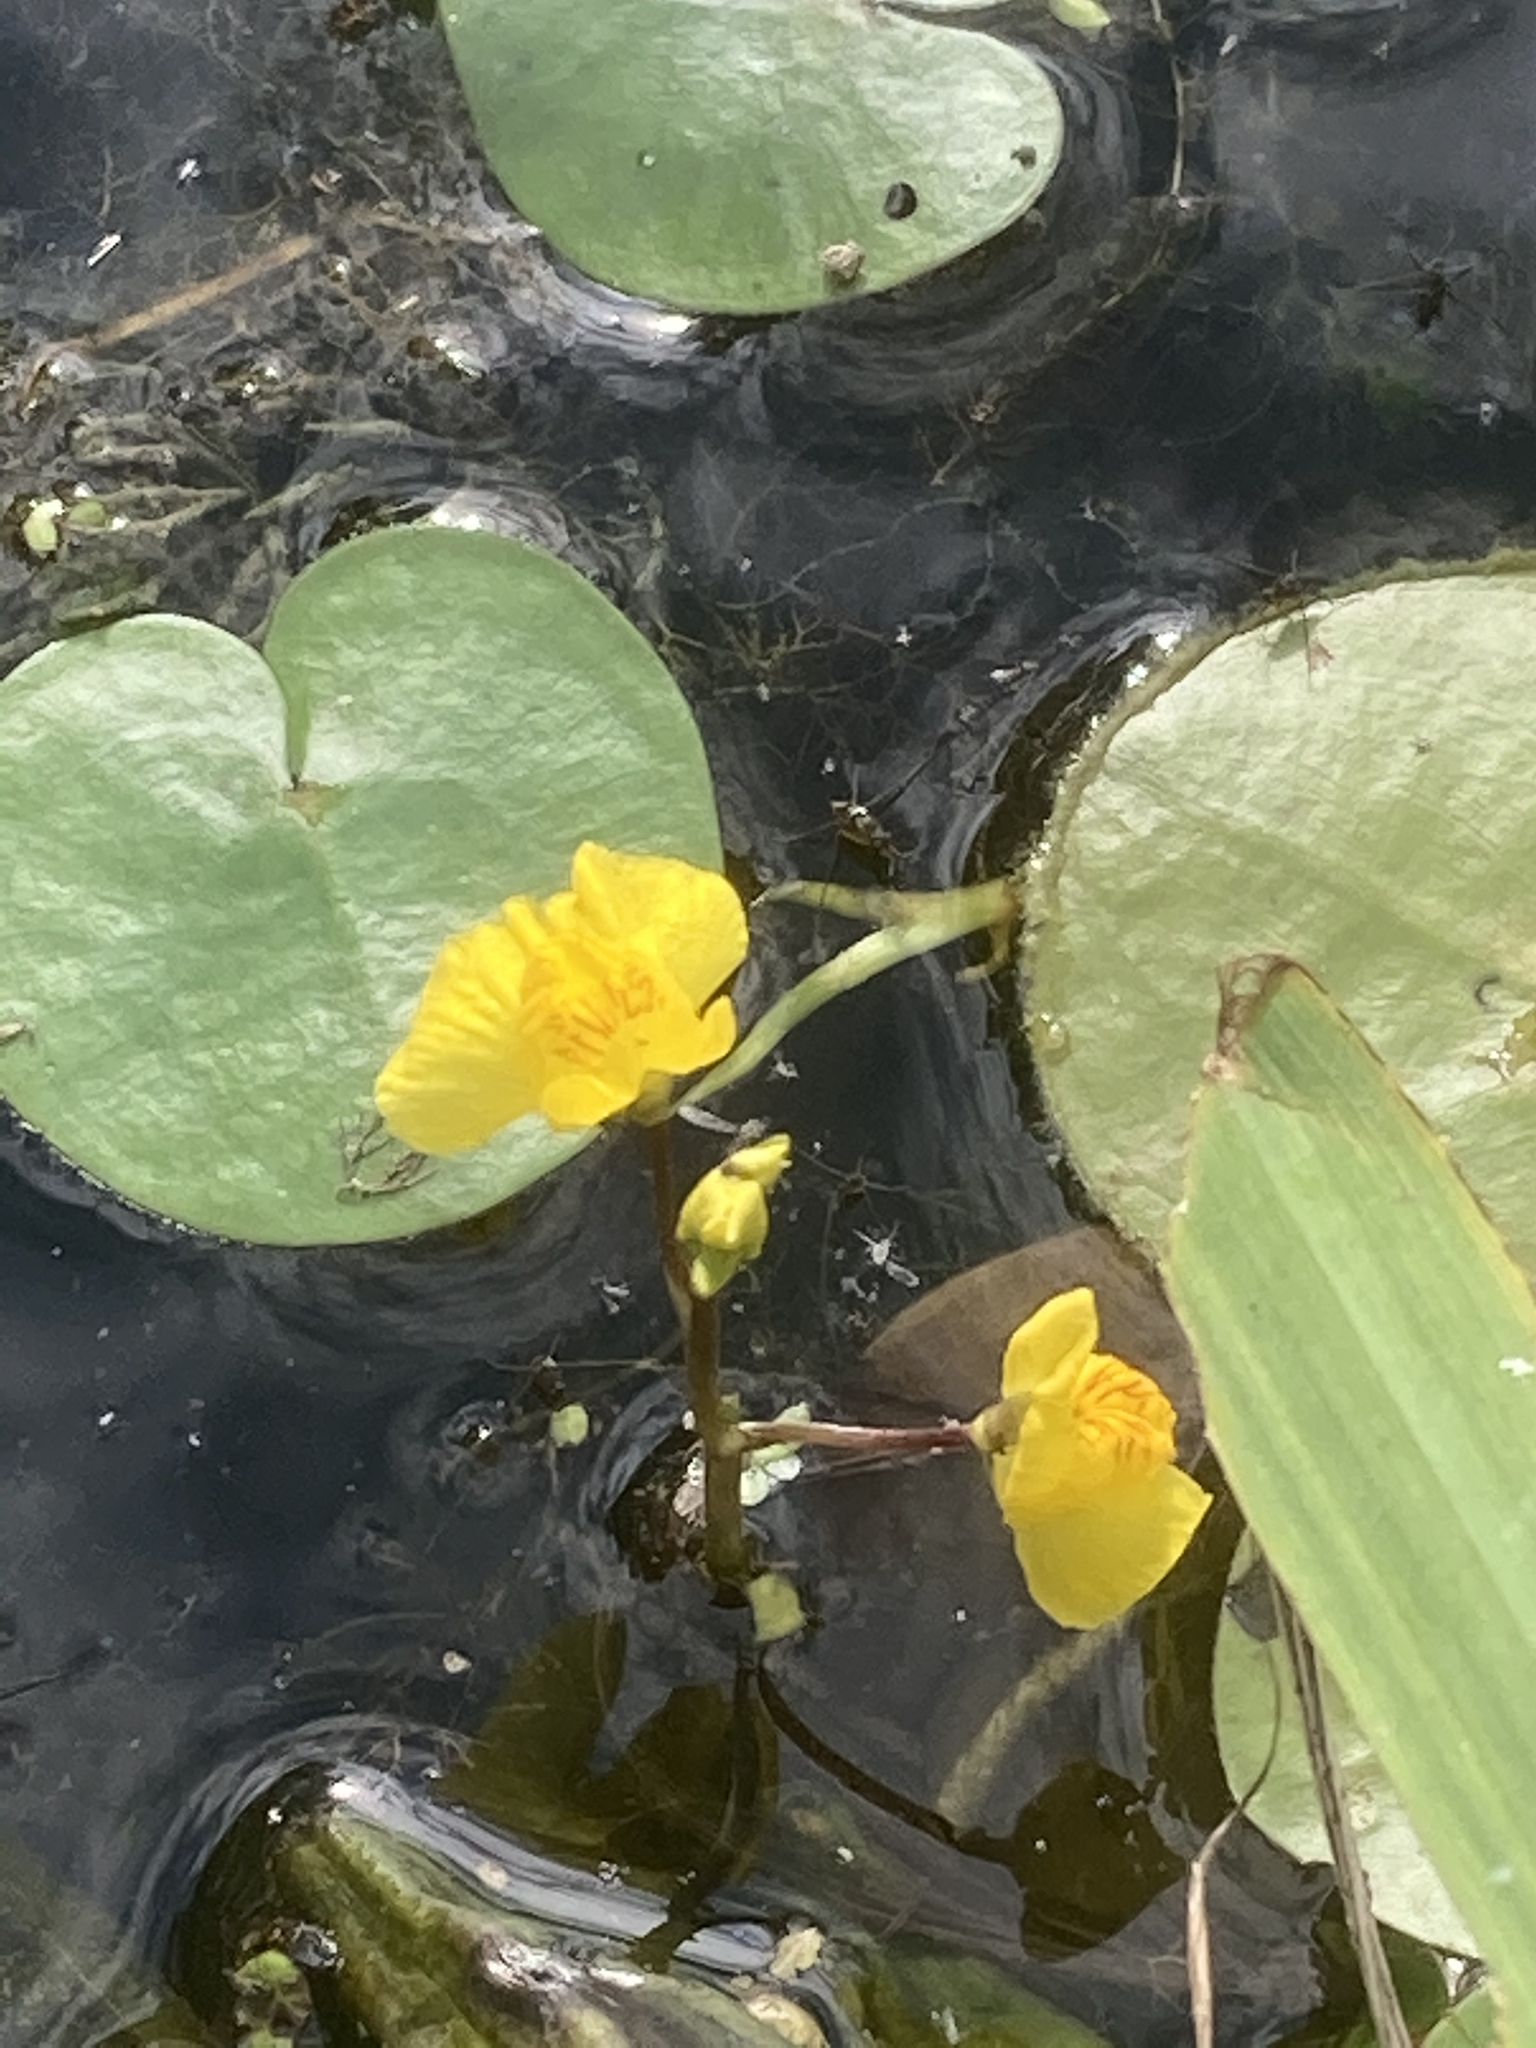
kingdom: Plantae
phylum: Tracheophyta
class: Magnoliopsida
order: Lamiales
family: Lentibulariaceae
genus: Utricularia
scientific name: Utricularia australis
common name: Bladderwort
